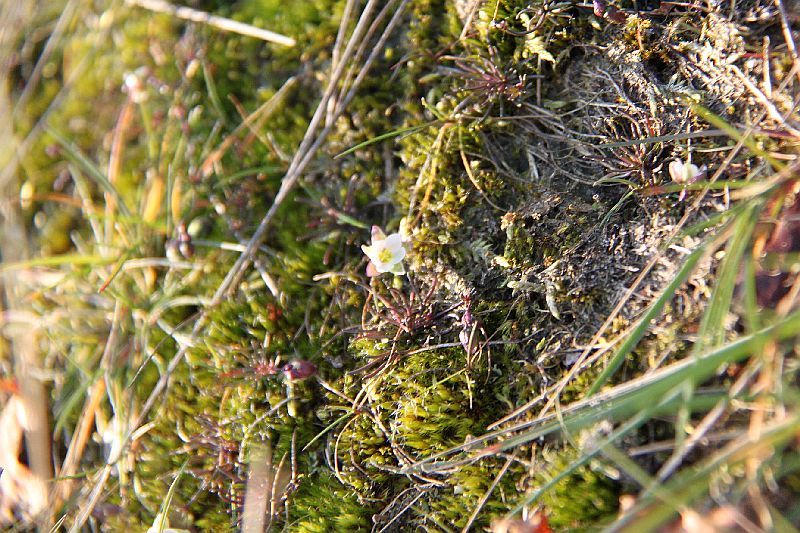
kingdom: Plantae
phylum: Tracheophyta
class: Magnoliopsida
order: Caryophyllales
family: Caryophyllaceae
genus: Spergula
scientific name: Spergula morisonii
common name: Pearlwort spurrey
